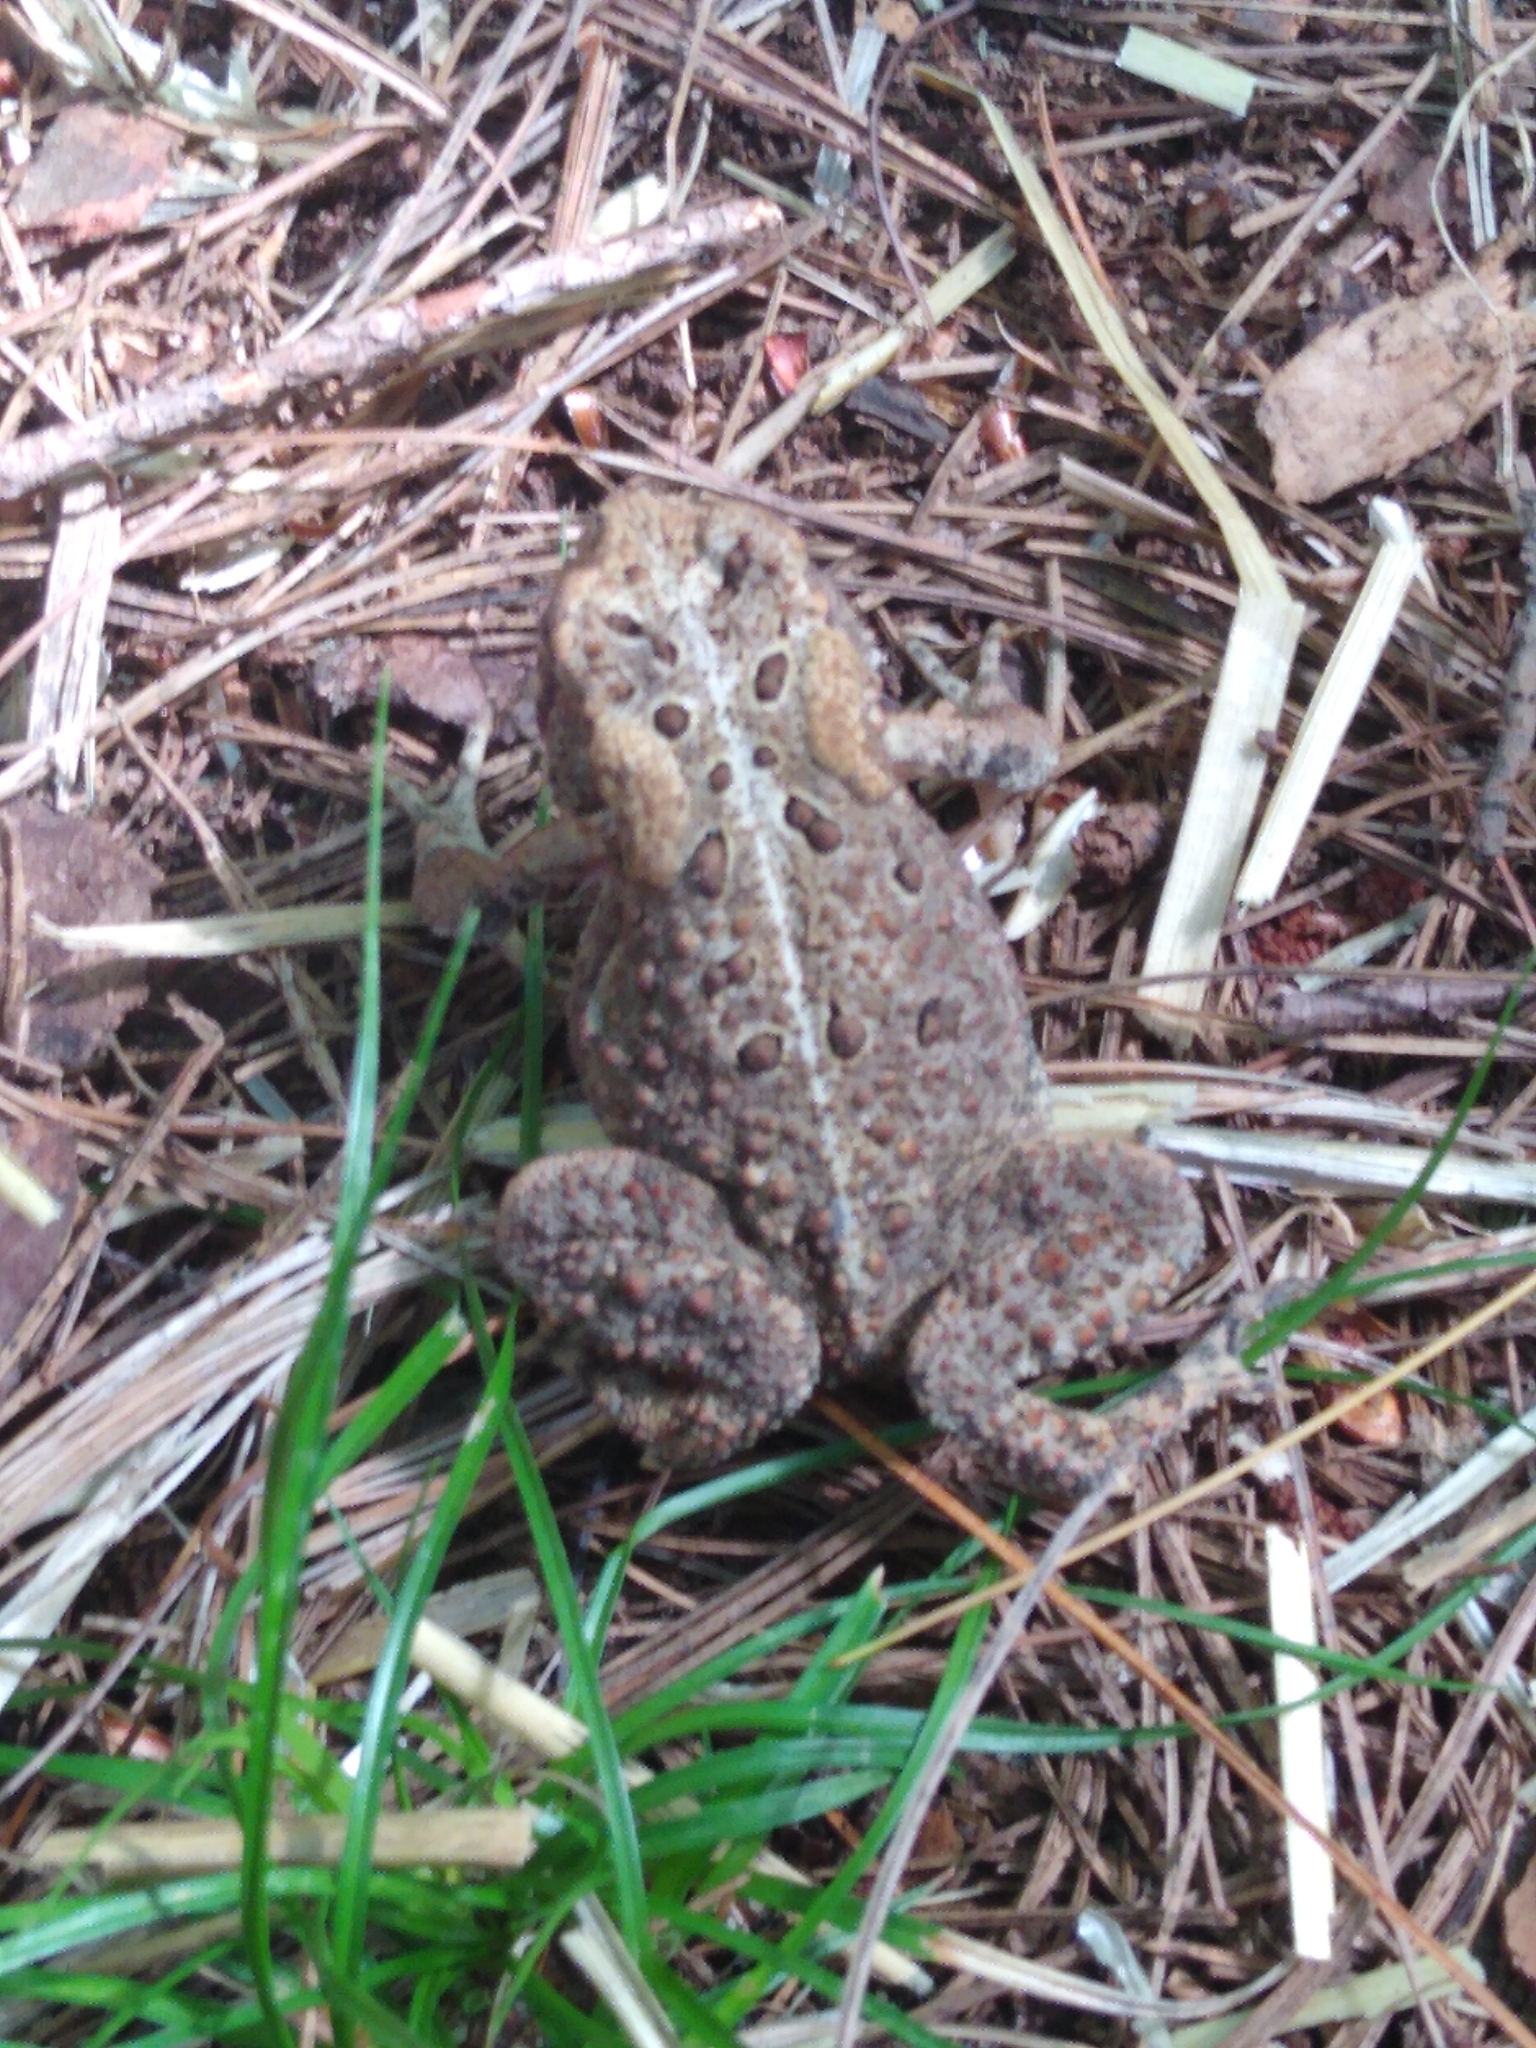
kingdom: Animalia
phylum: Chordata
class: Amphibia
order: Anura
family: Bufonidae
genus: Anaxyrus
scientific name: Anaxyrus americanus
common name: American toad
